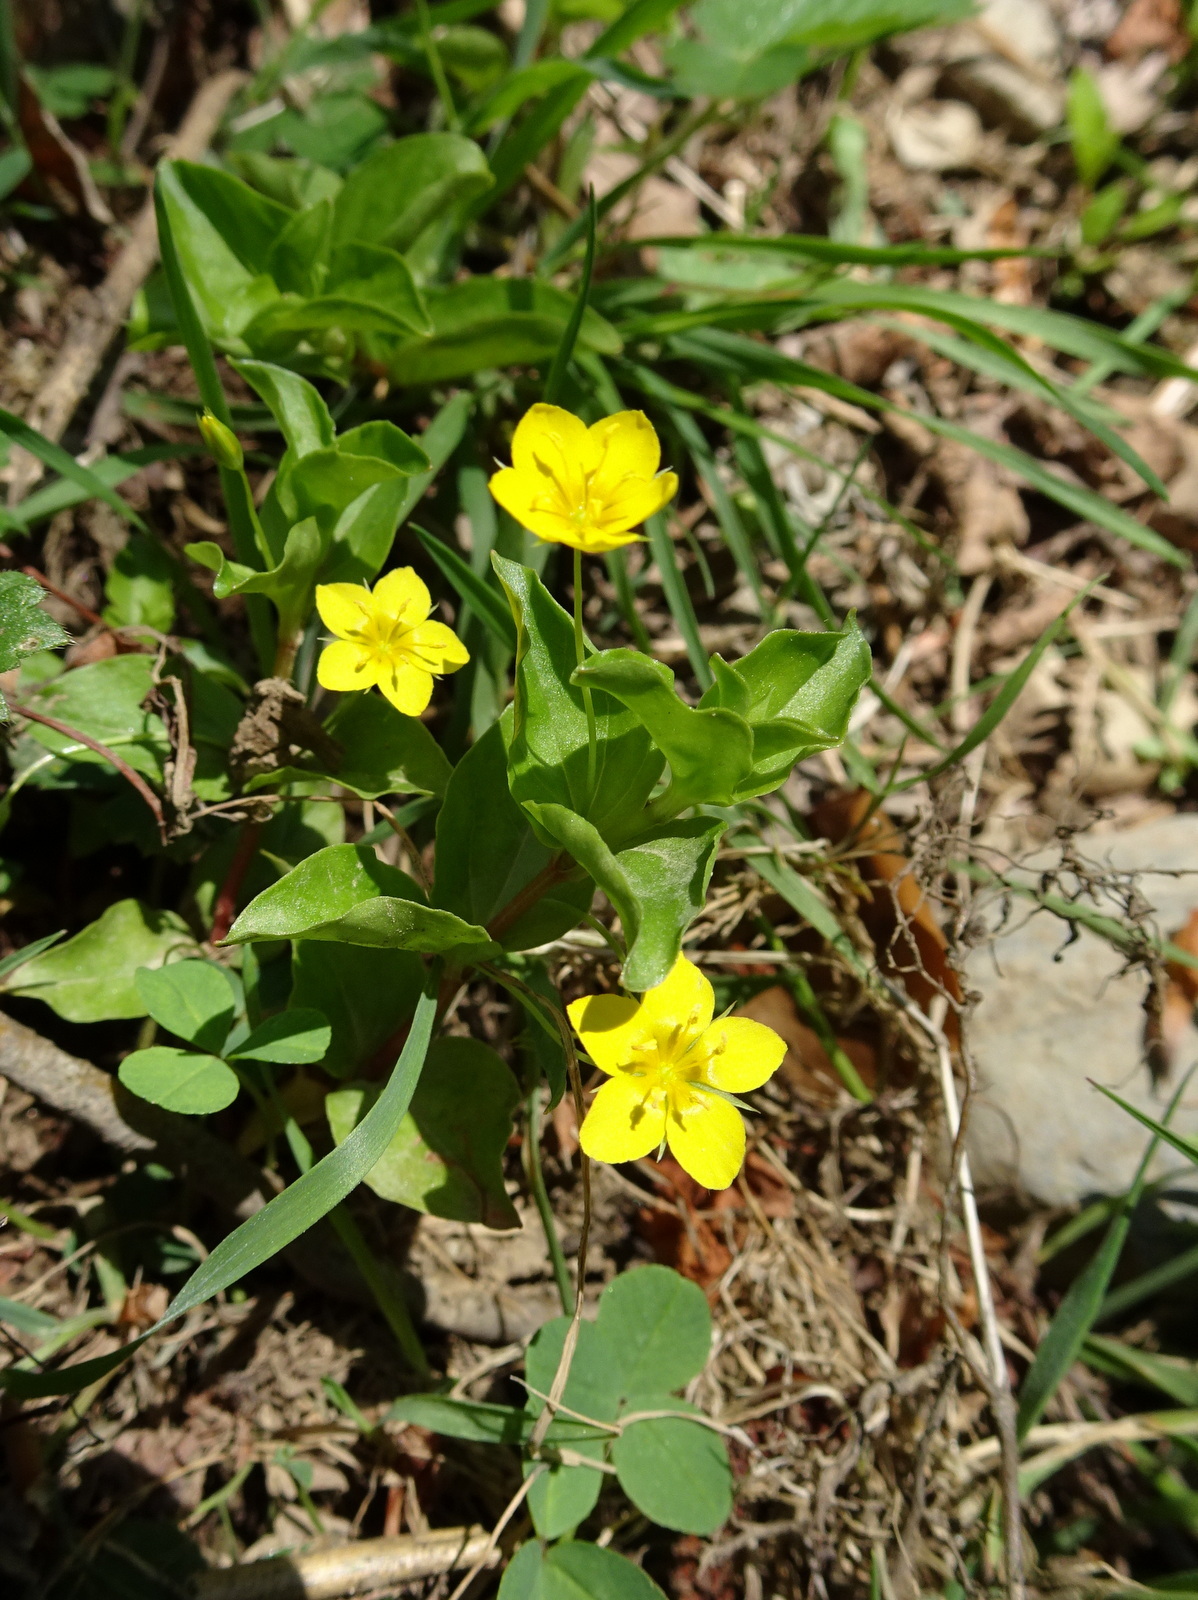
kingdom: Plantae
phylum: Tracheophyta
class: Magnoliopsida
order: Ericales
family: Primulaceae
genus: Lysimachia
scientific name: Lysimachia nemorum
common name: Yellow pimpernel
